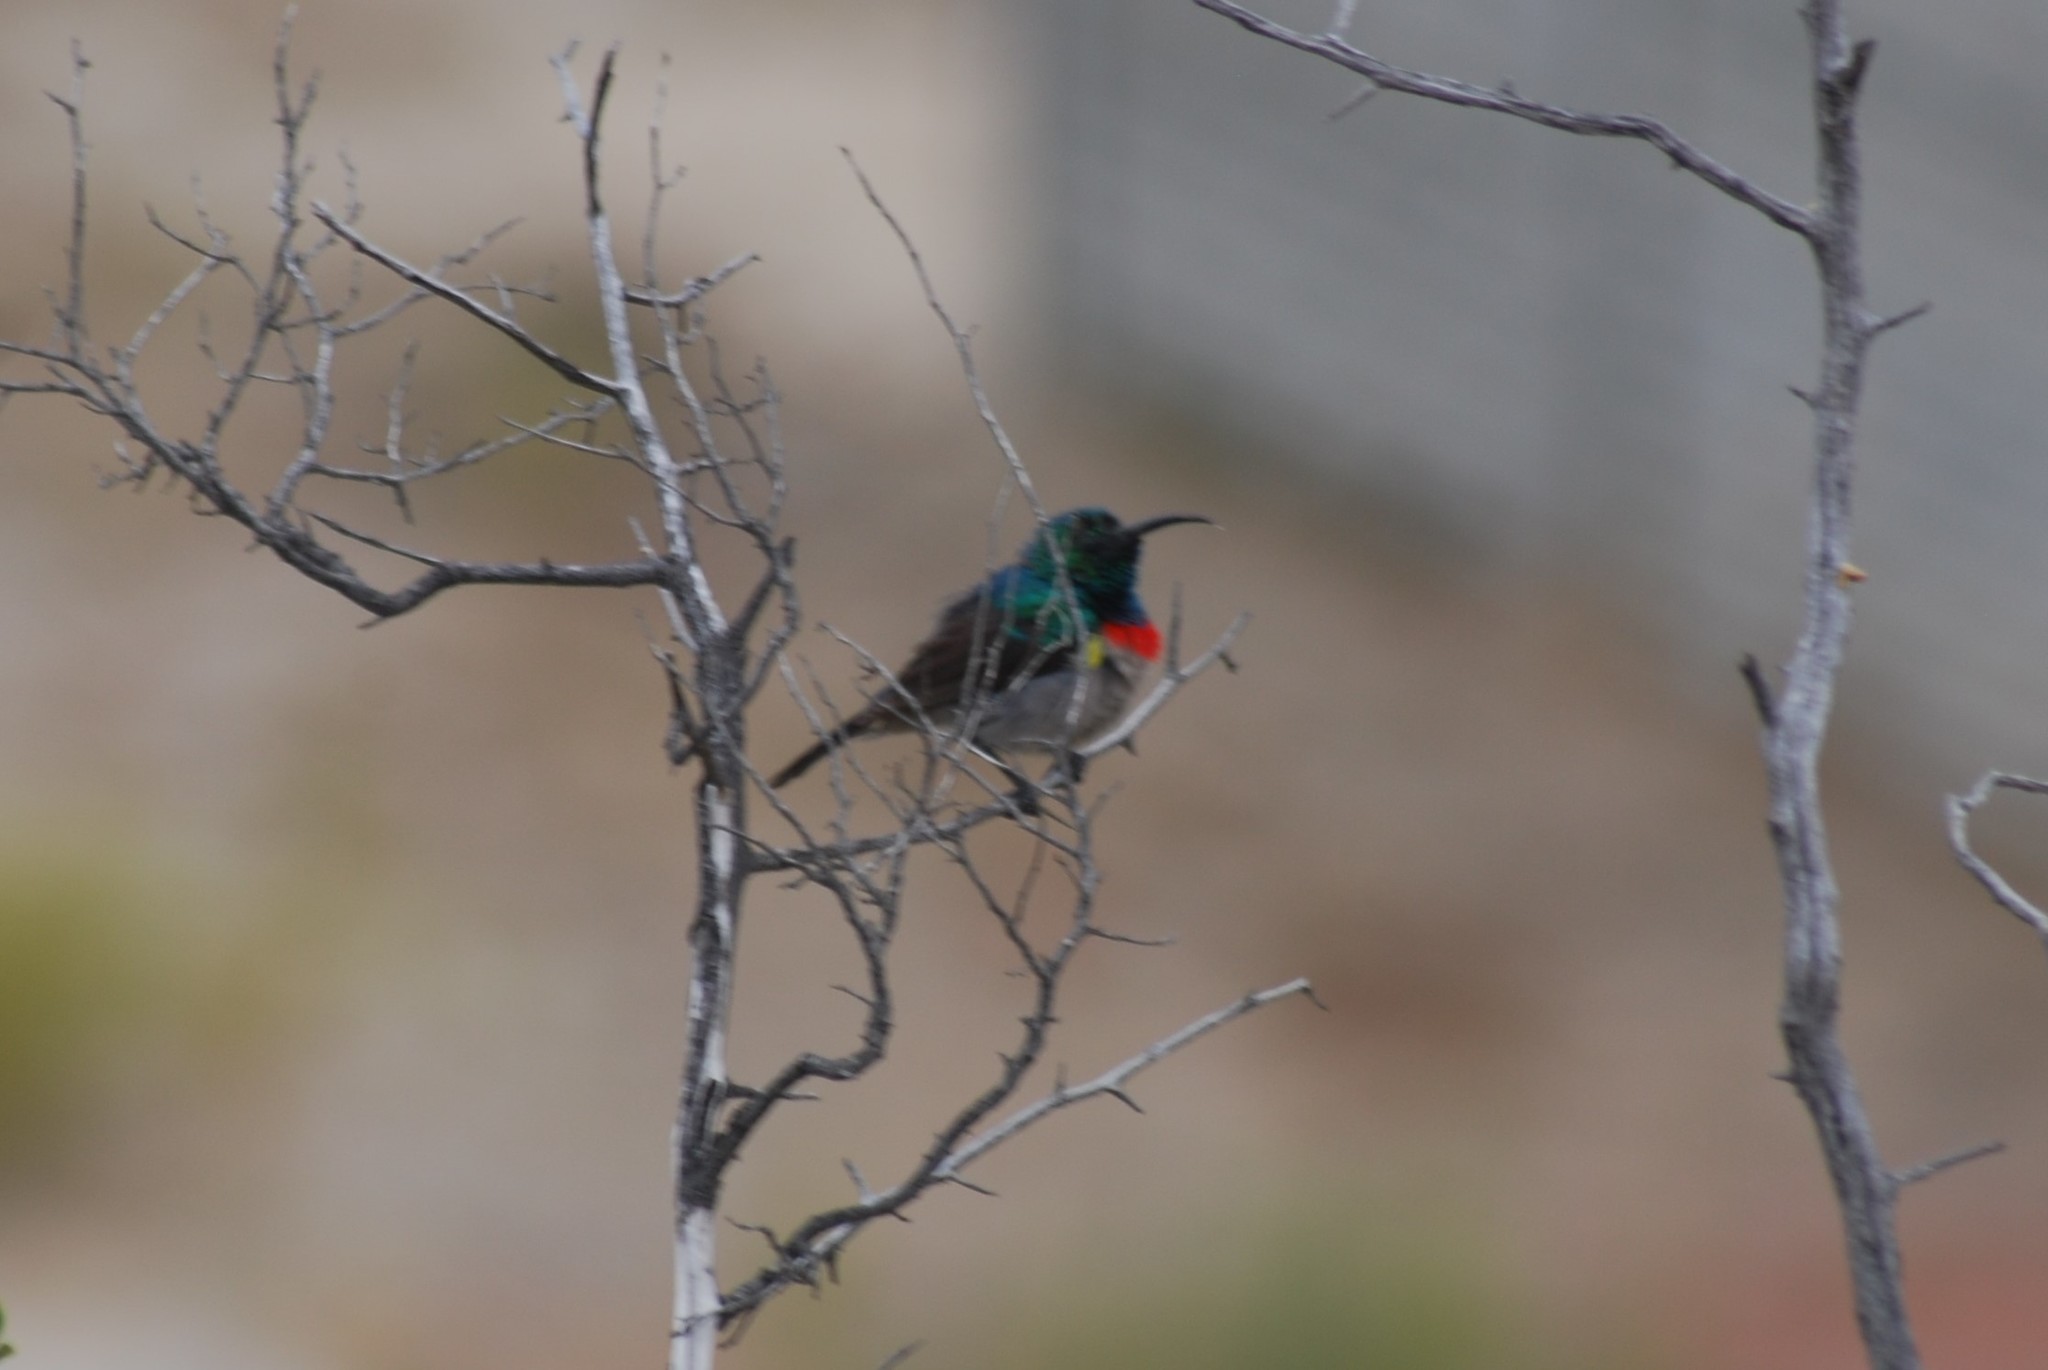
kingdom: Animalia
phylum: Chordata
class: Aves
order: Passeriformes
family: Nectariniidae
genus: Cinnyris
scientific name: Cinnyris chalybeus
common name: Southern double-collared sunbird
